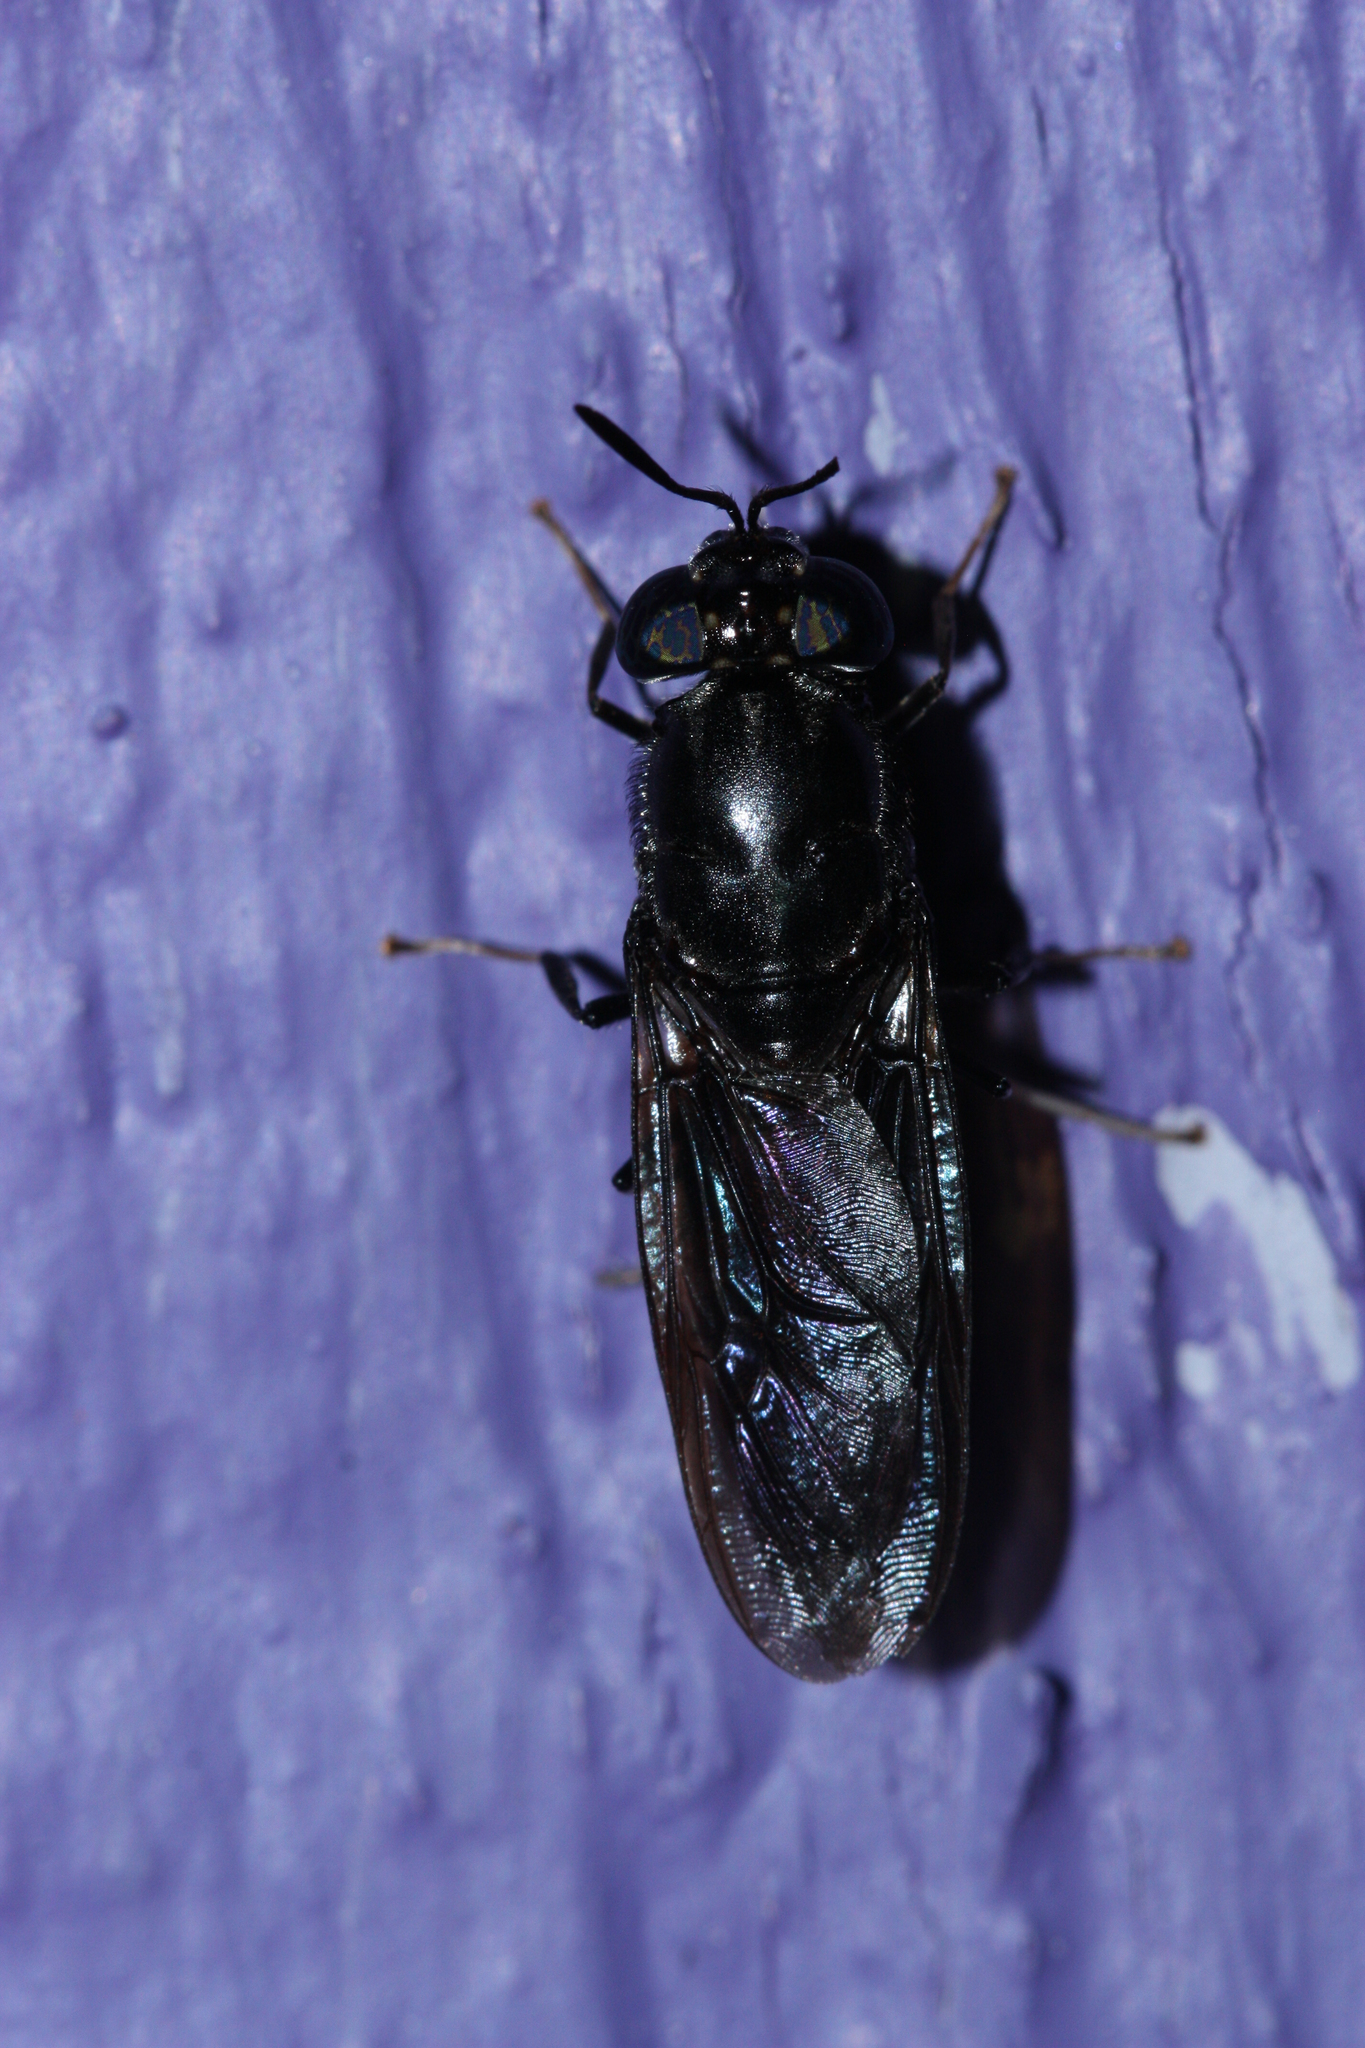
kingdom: Animalia
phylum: Arthropoda
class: Insecta
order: Diptera
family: Stratiomyidae
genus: Hermetia
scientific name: Hermetia illucens
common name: Black soldier fly
